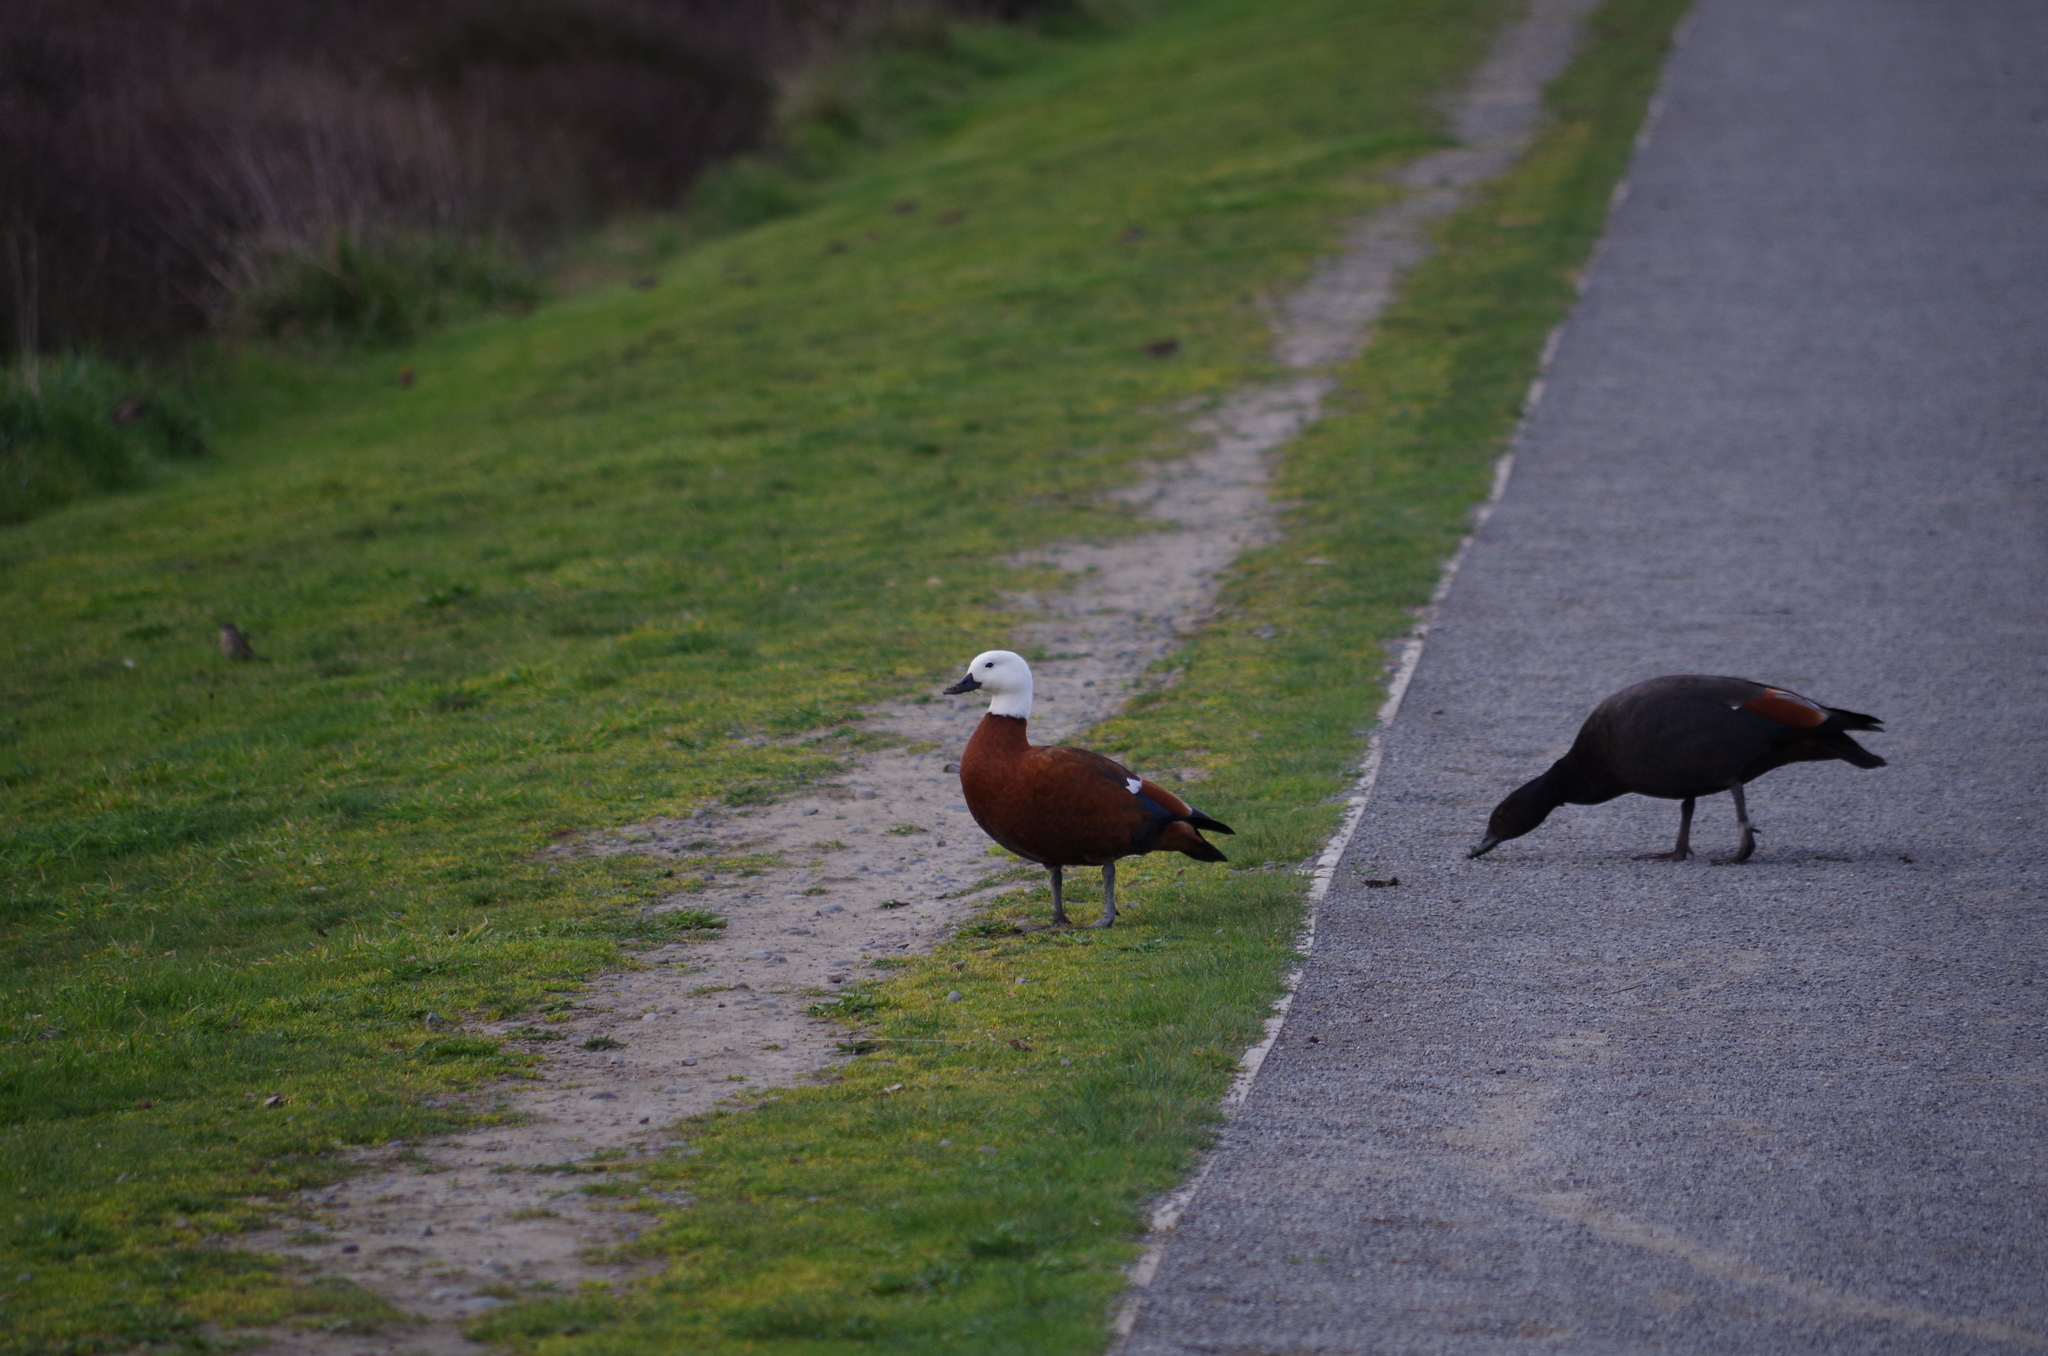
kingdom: Animalia
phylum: Chordata
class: Aves
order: Anseriformes
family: Anatidae
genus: Tadorna
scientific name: Tadorna variegata
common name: Paradise shelduck
